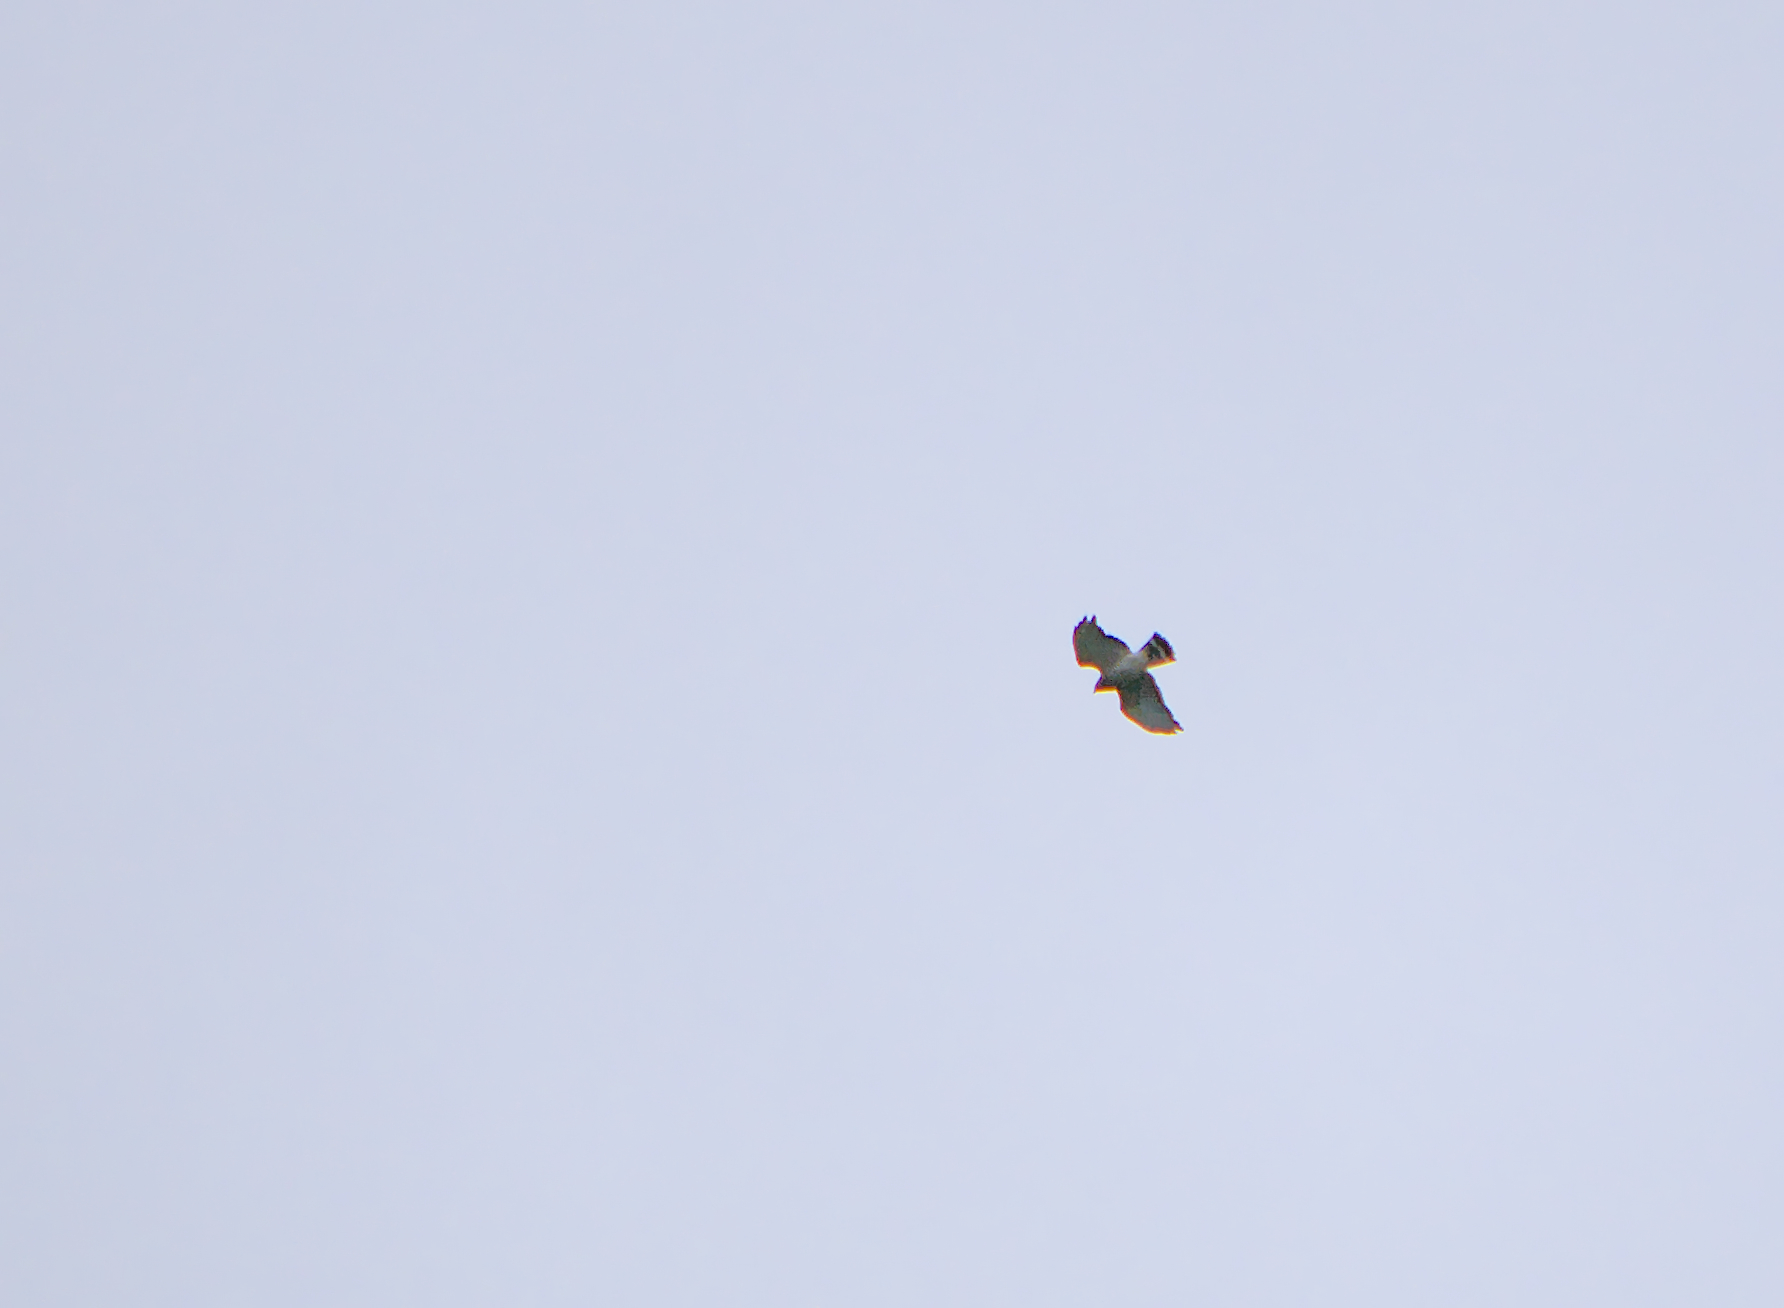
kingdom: Animalia
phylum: Chordata
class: Aves
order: Accipitriformes
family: Accipitridae
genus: Buteo
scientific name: Buteo platypterus
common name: Broad-winged hawk
